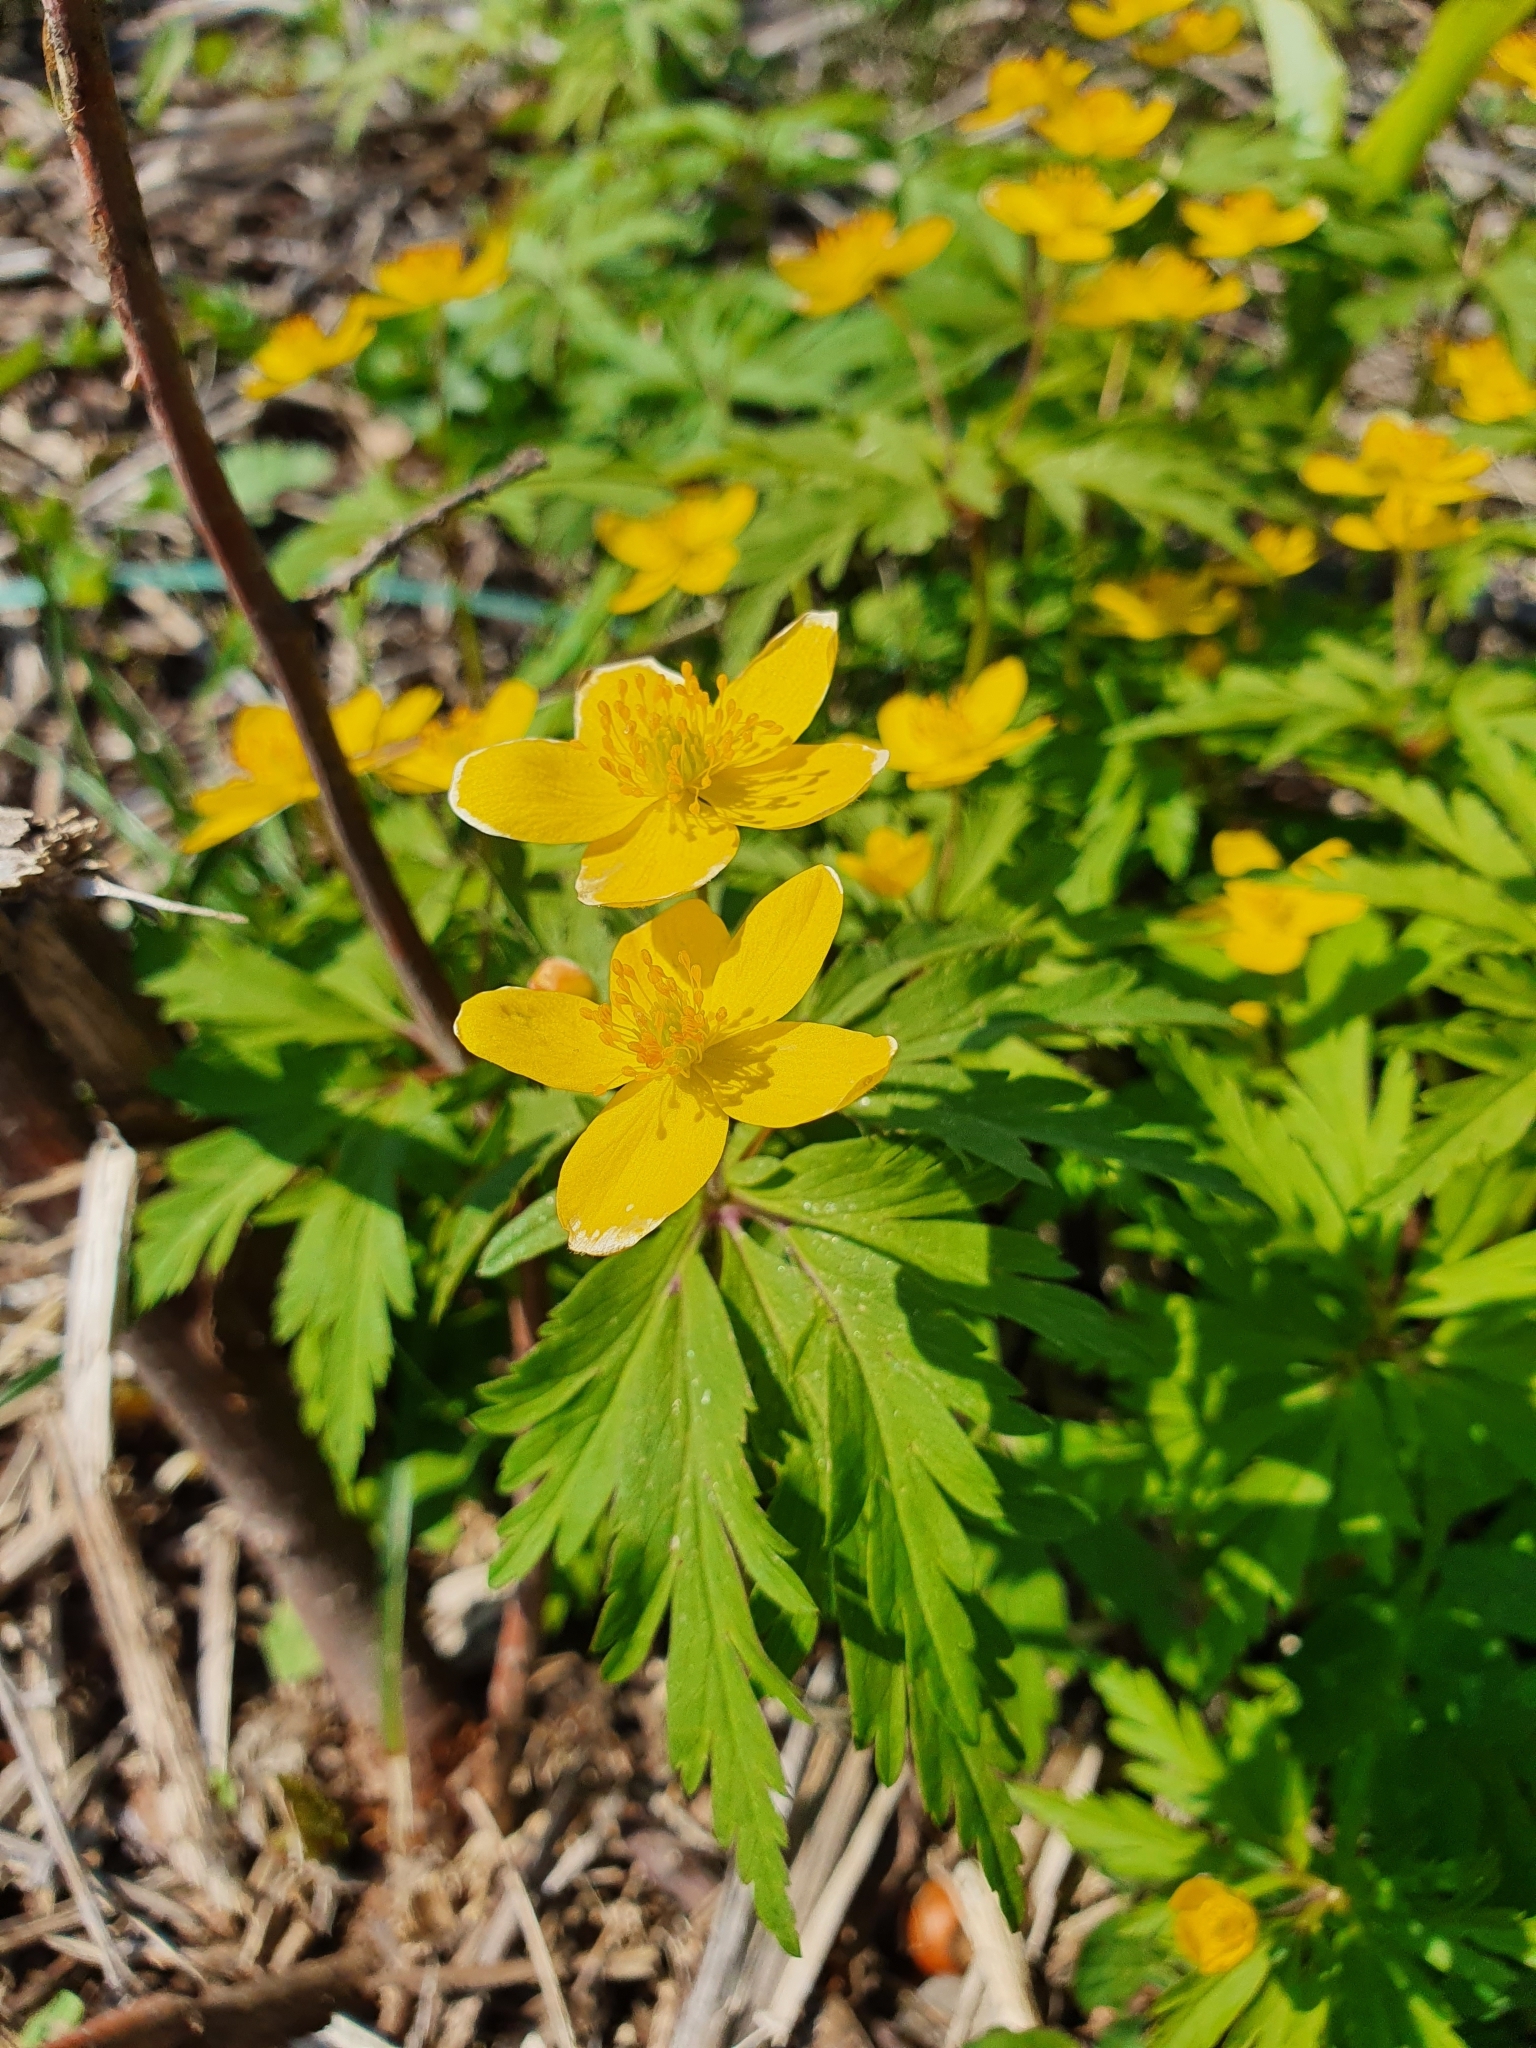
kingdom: Plantae
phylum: Tracheophyta
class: Magnoliopsida
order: Ranunculales
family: Ranunculaceae
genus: Anemone
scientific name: Anemone ranunculoides
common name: Yellow anemone
